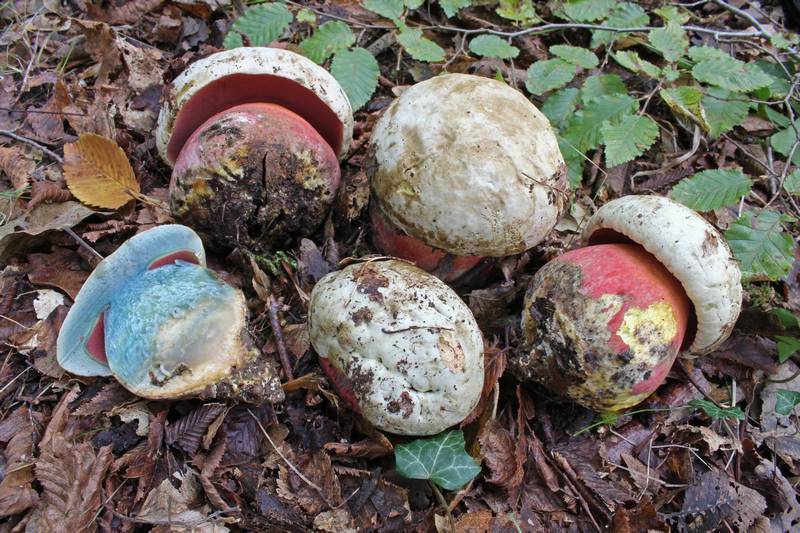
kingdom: Fungi
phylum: Basidiomycota
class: Agaricomycetes
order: Boletales
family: Boletaceae
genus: Rubroboletus
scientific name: Rubroboletus satanas
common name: Devil's bolete
